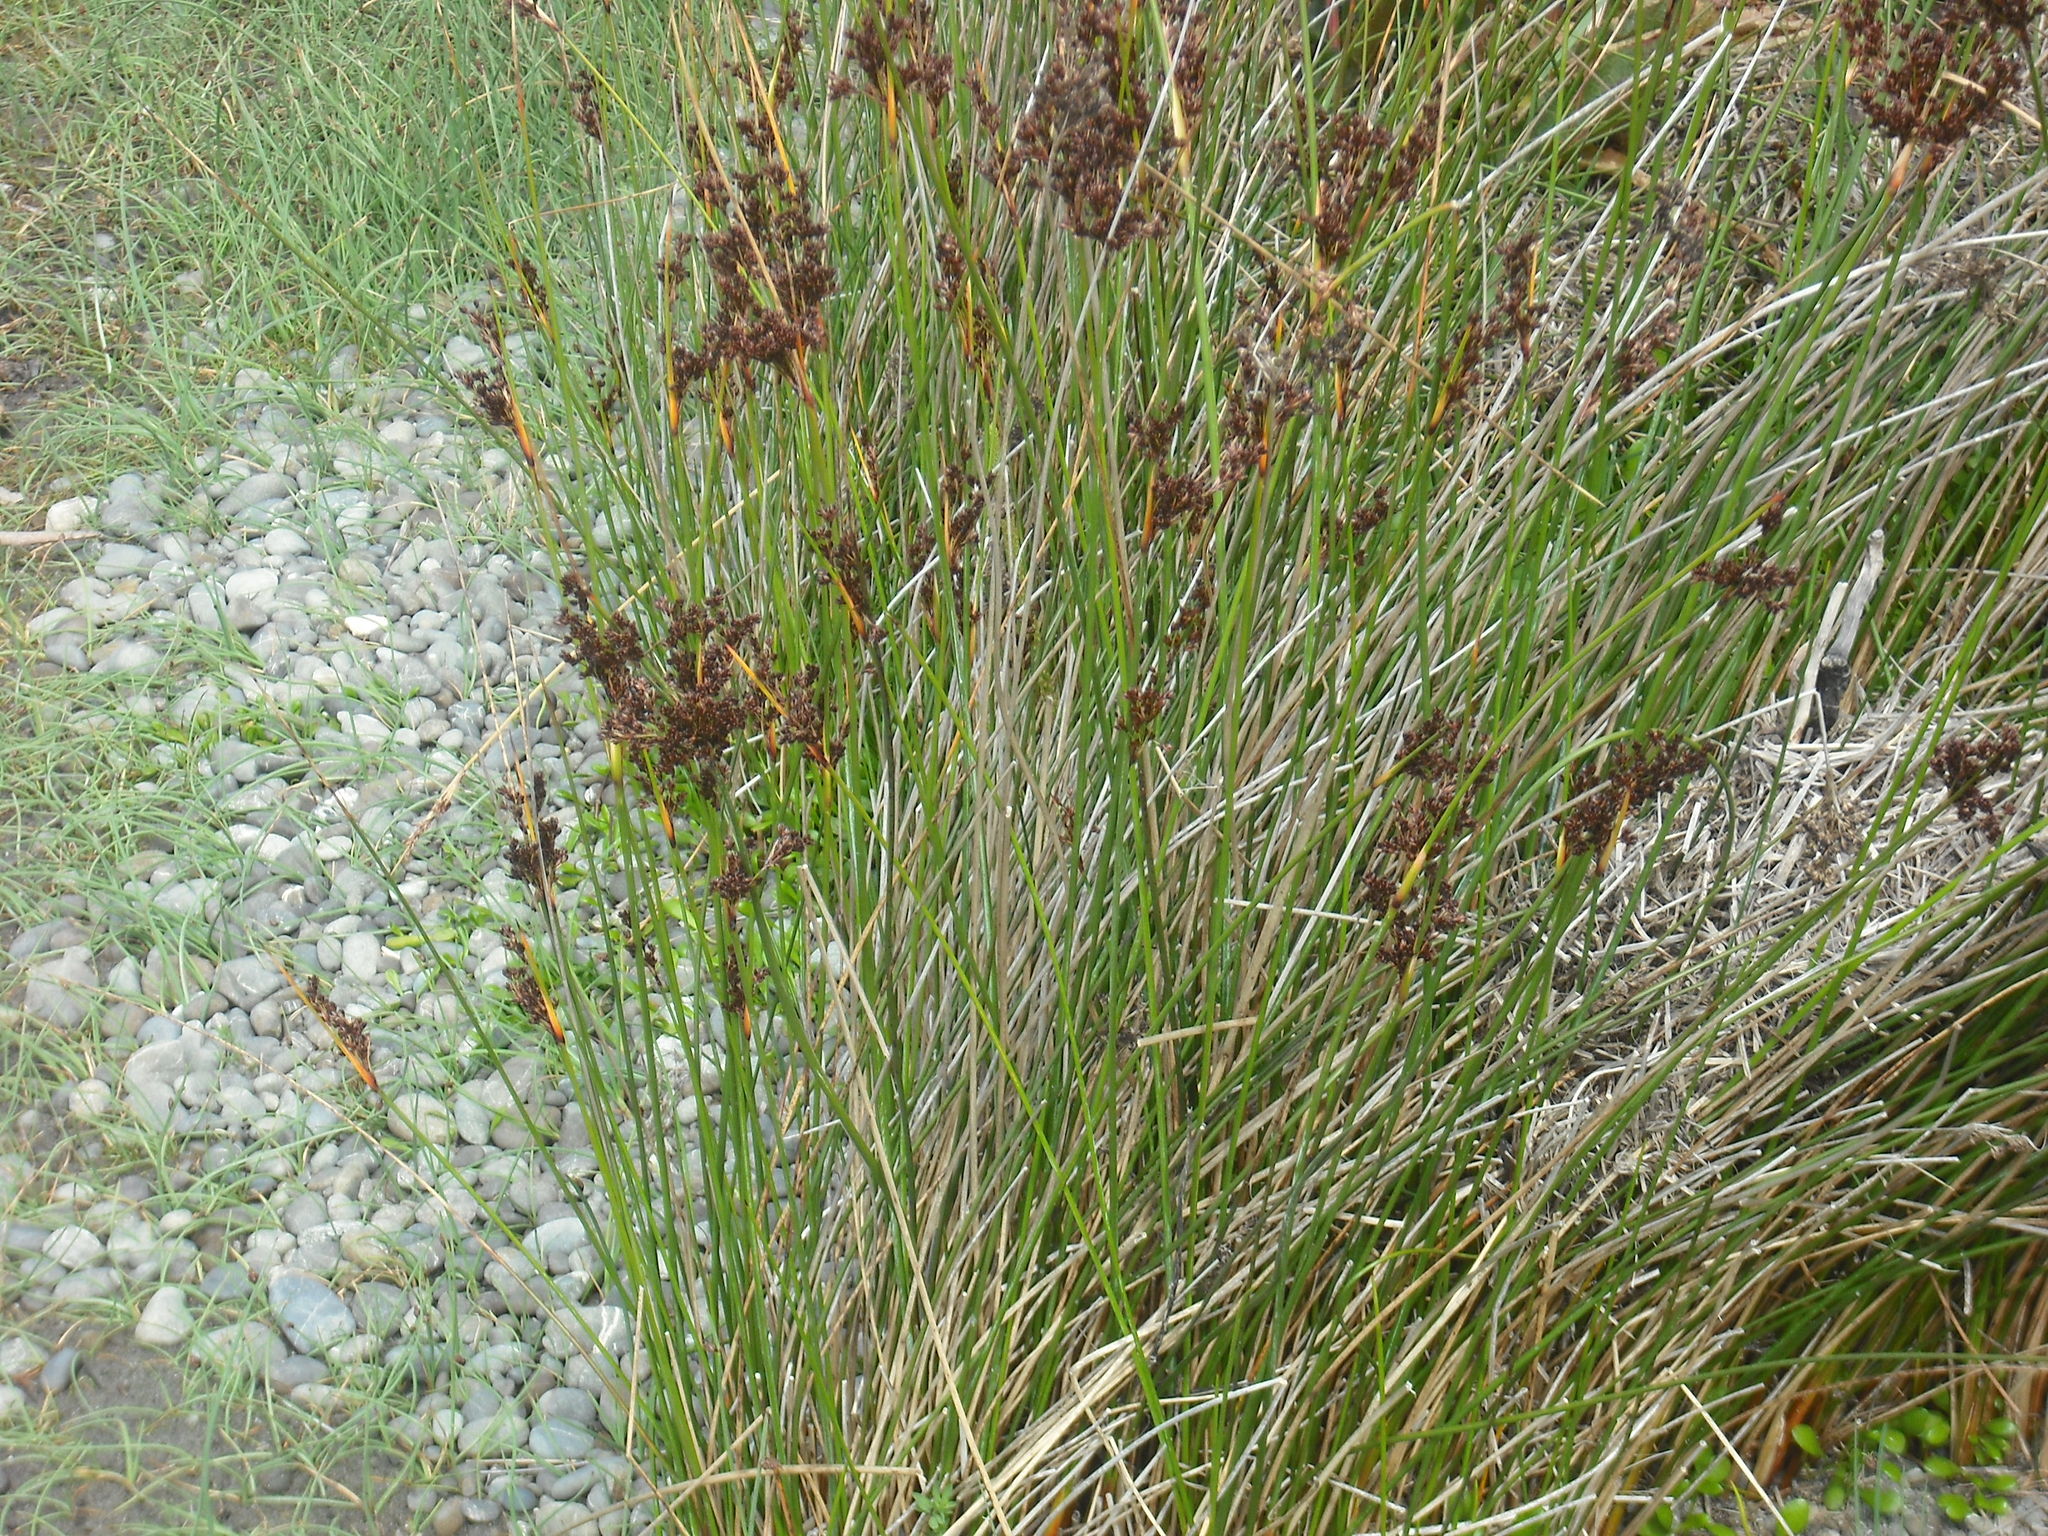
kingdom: Plantae
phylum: Tracheophyta
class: Liliopsida
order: Poales
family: Juncaceae
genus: Juncus
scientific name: Juncus kraussii
